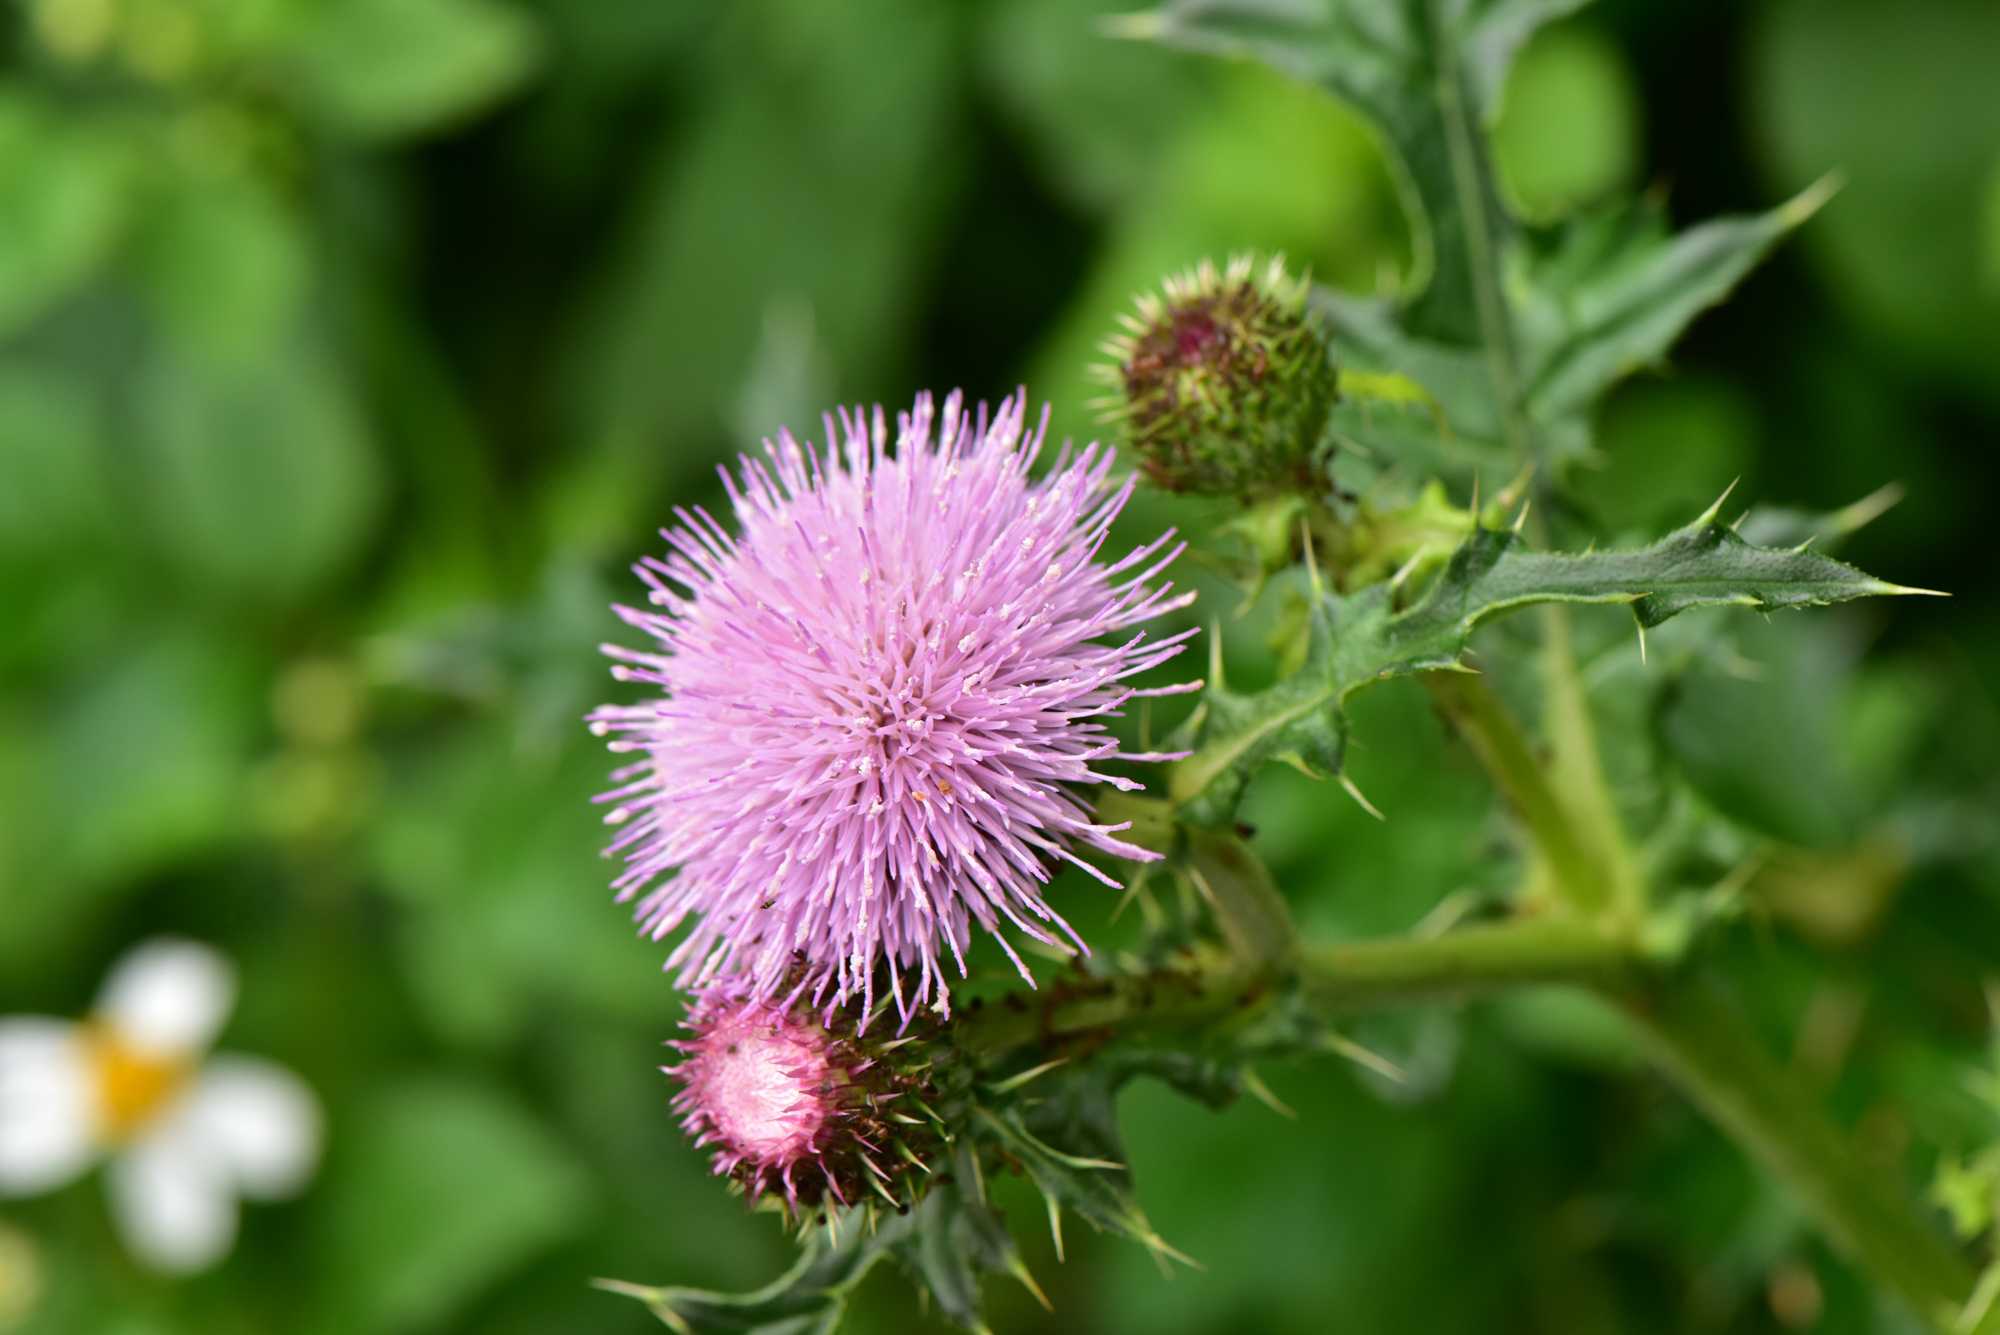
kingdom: Plantae
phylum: Tracheophyta
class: Magnoliopsida
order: Asterales
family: Asteraceae
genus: Cirsium
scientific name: Cirsium japonicum
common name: Japanese thistle
